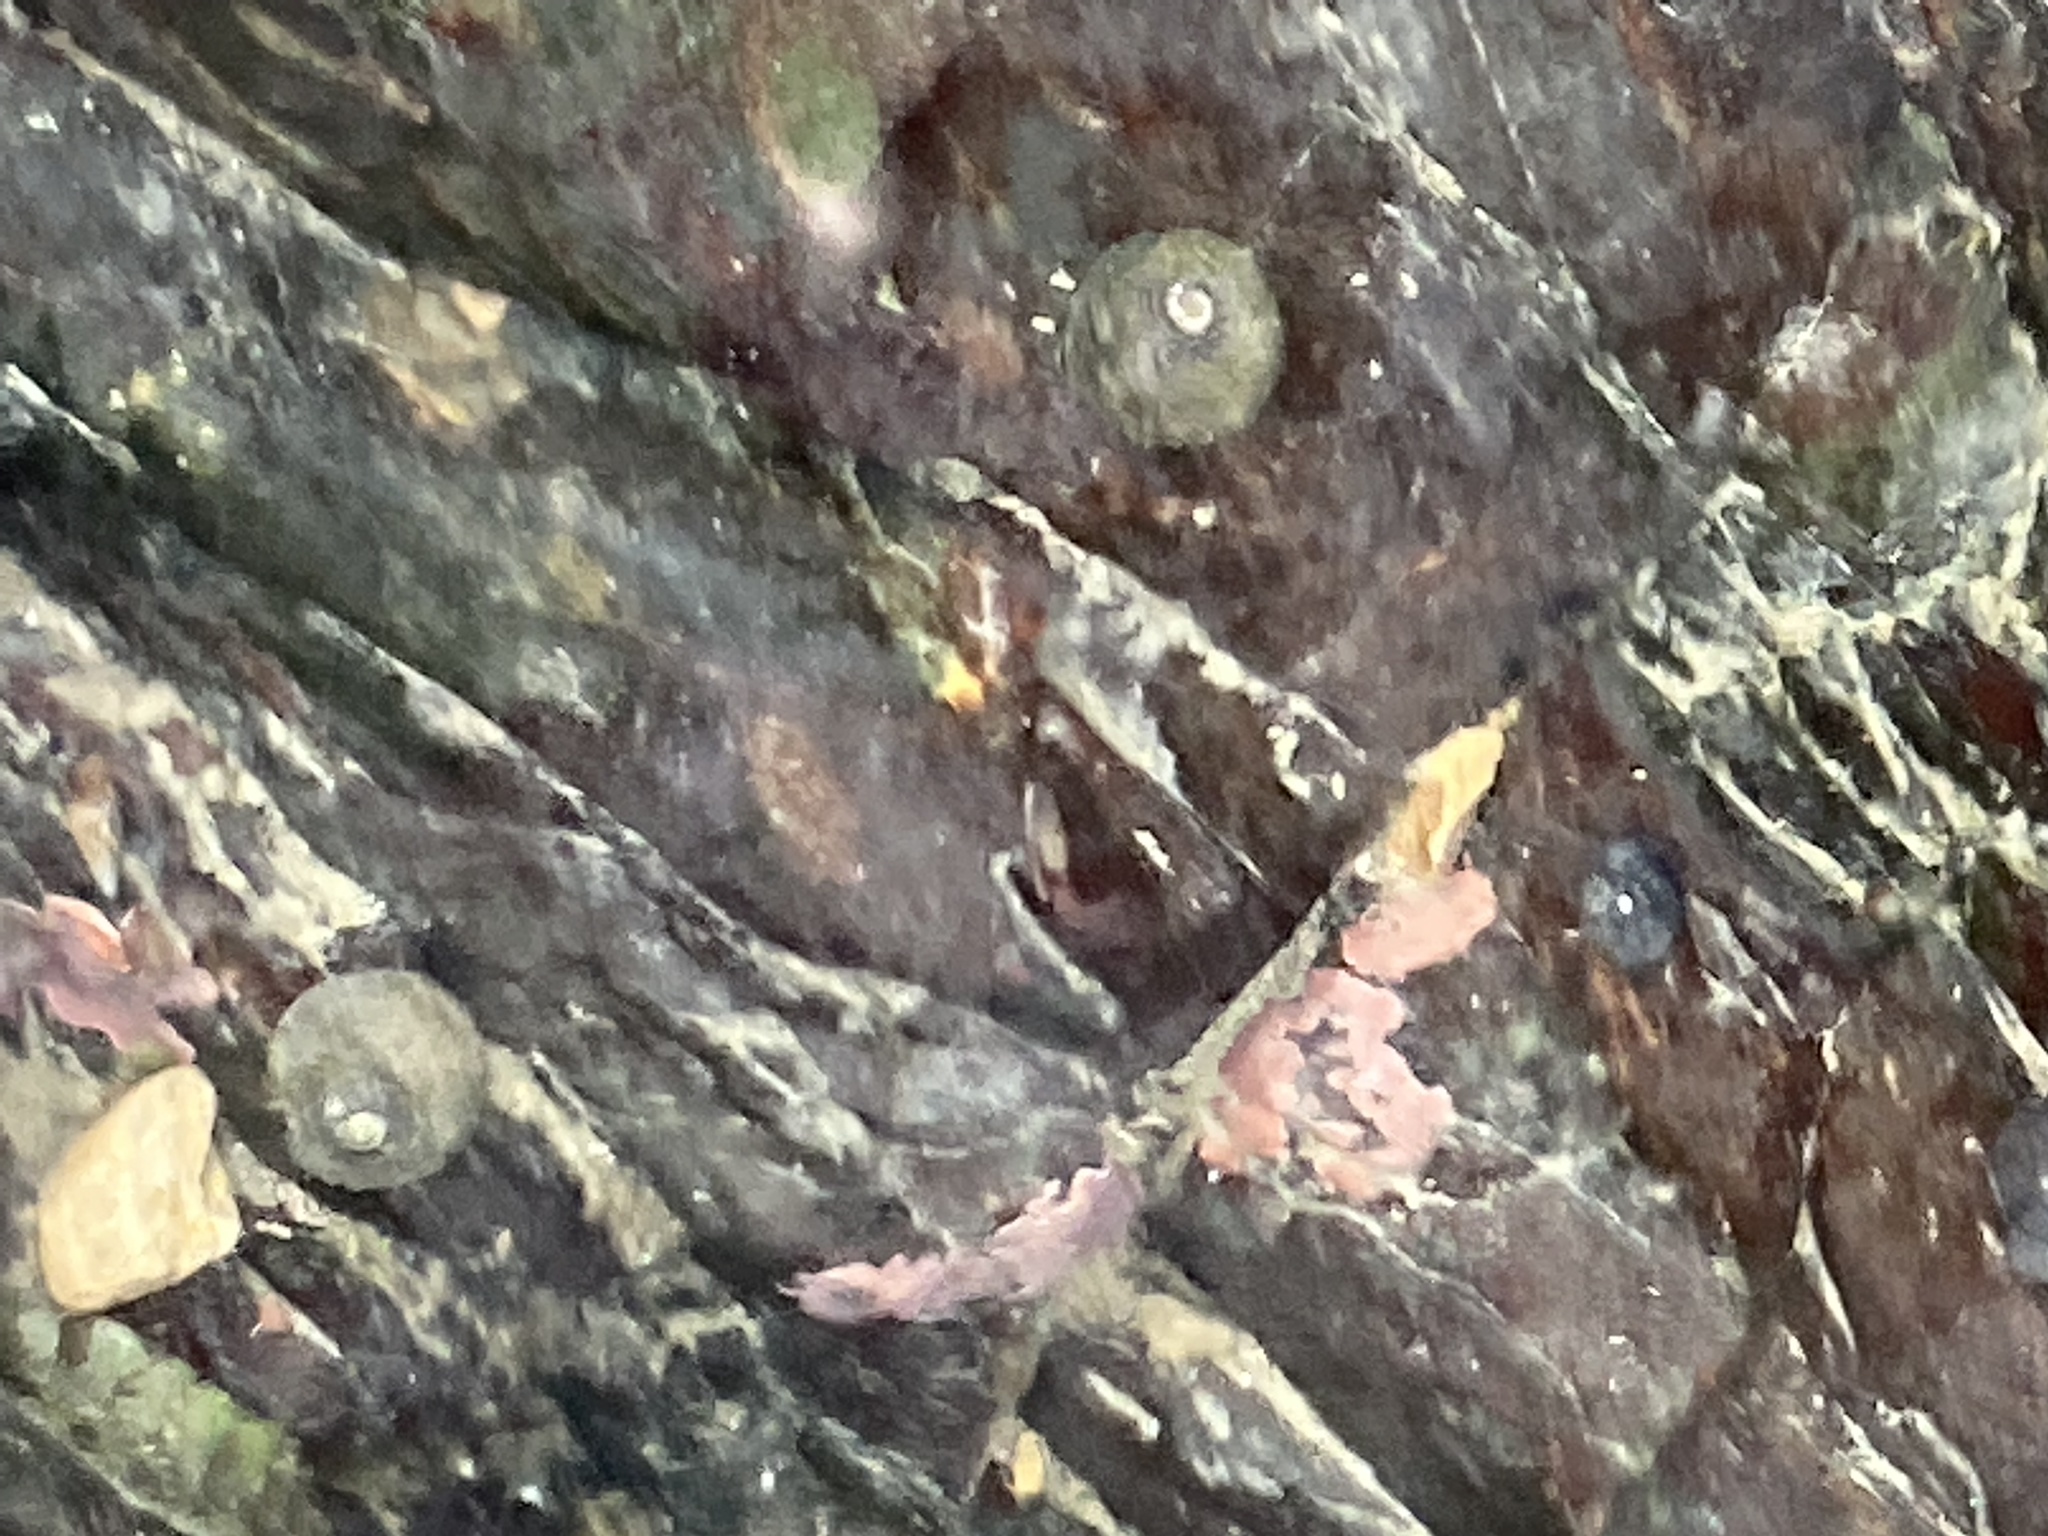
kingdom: Animalia
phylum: Mollusca
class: Gastropoda
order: Trochida
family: Trochidae
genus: Diloma
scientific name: Diloma aethiops
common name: Scorched monodont
